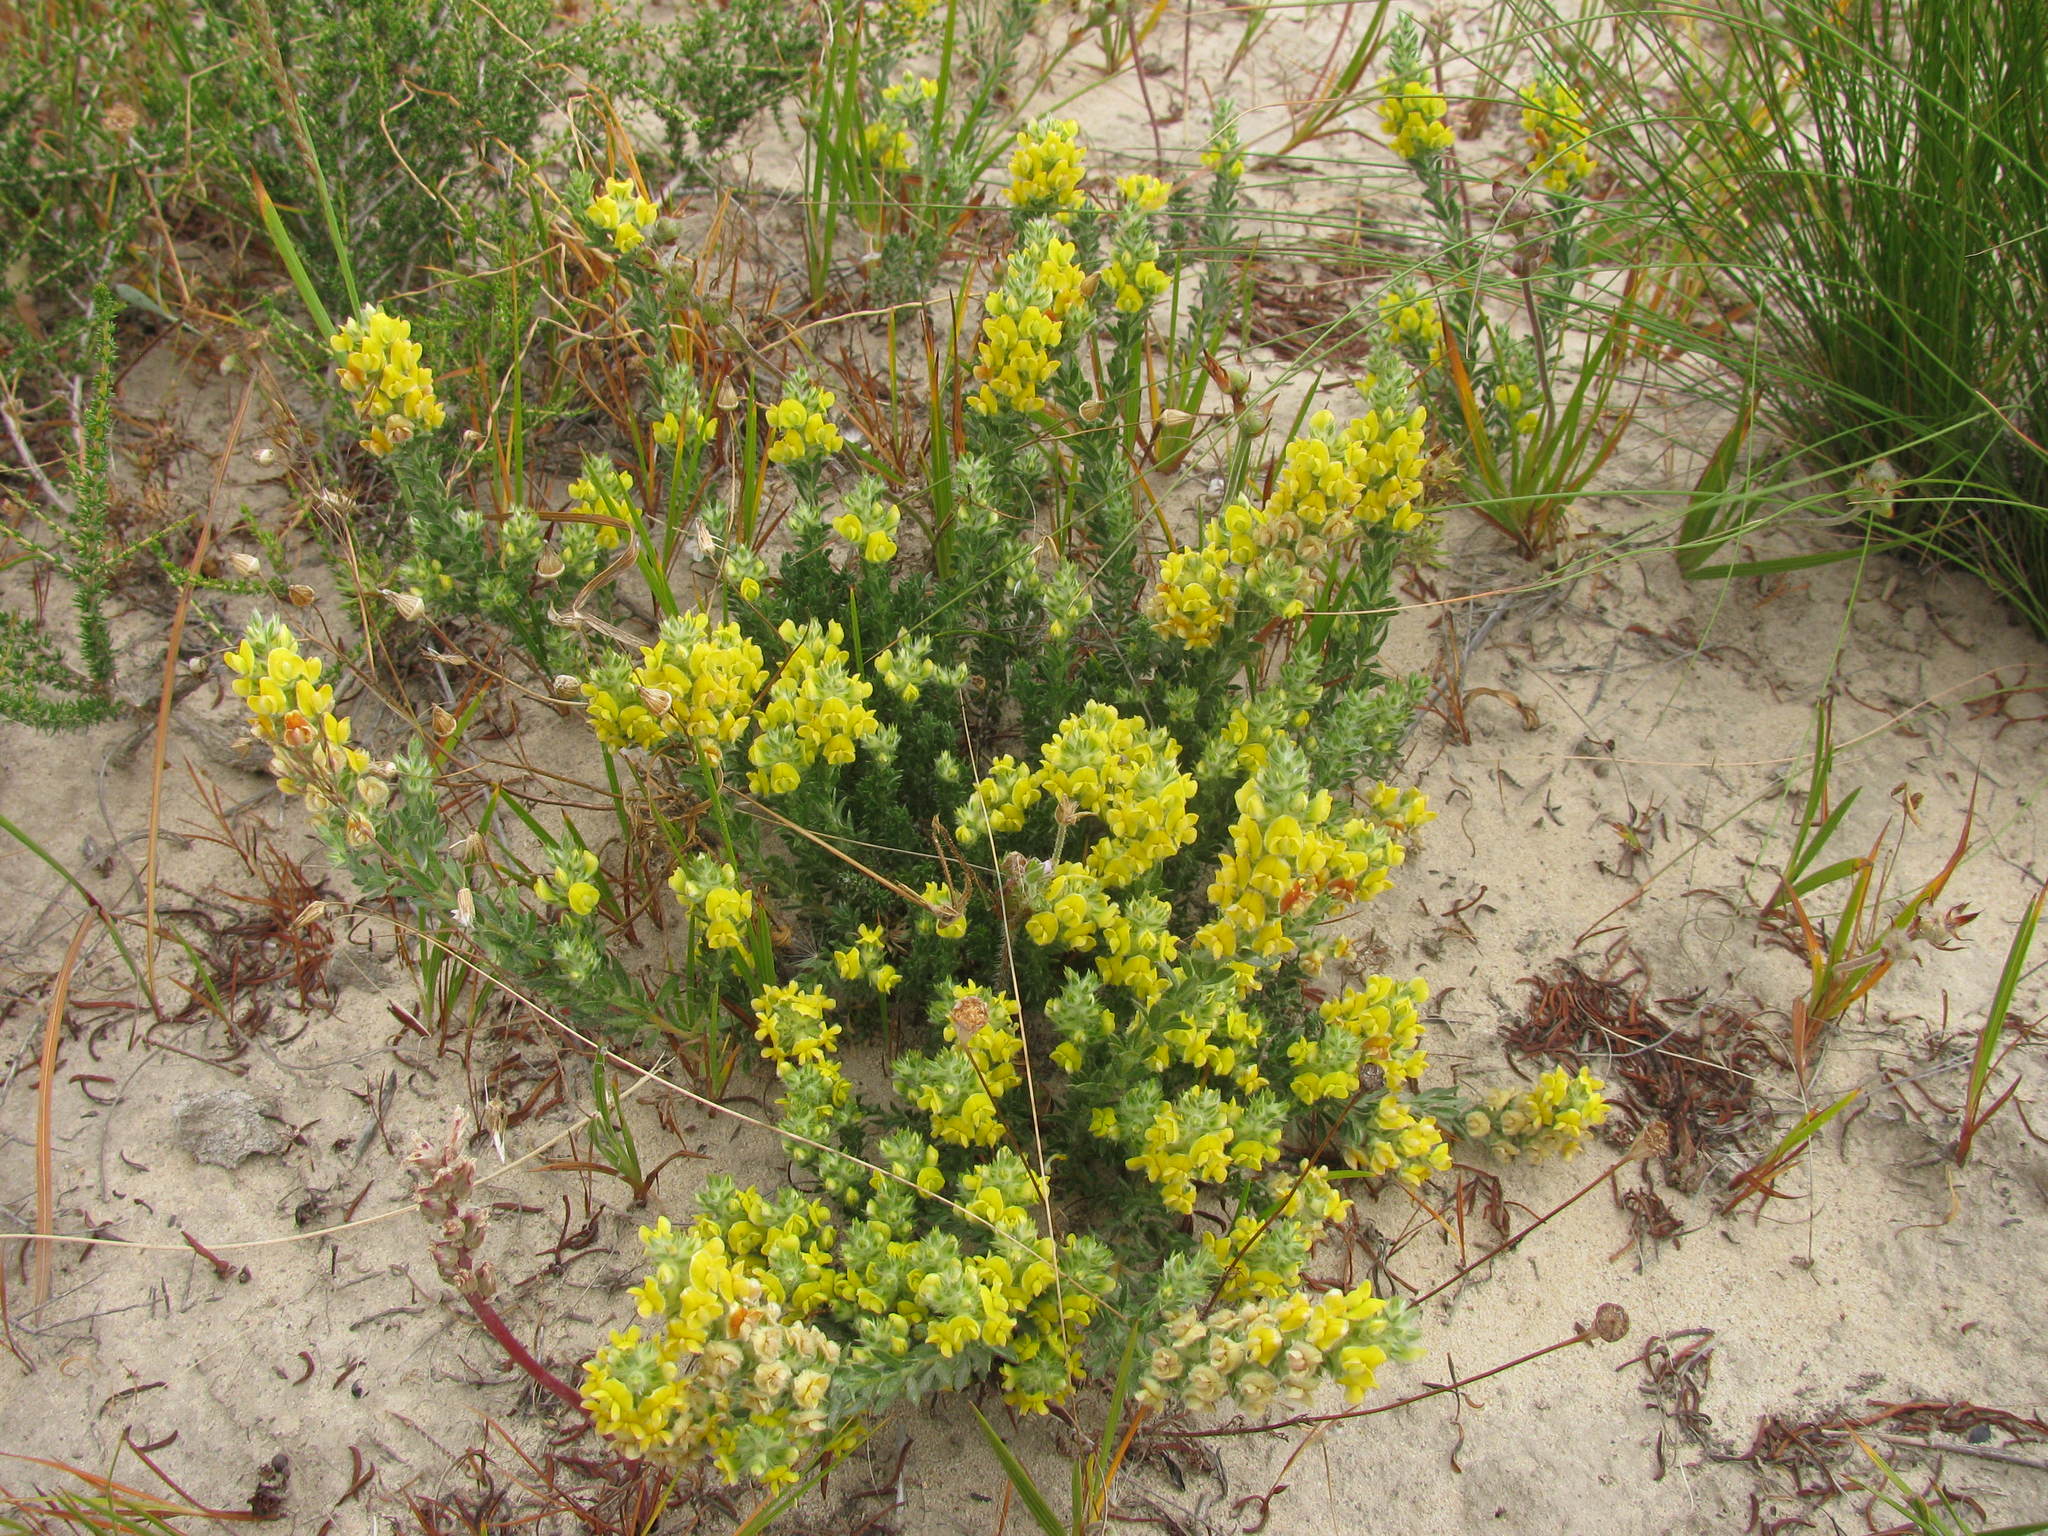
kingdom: Plantae
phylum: Tracheophyta
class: Magnoliopsida
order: Fabales
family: Fabaceae
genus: Aspalathus
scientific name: Aspalathus heterophylla
